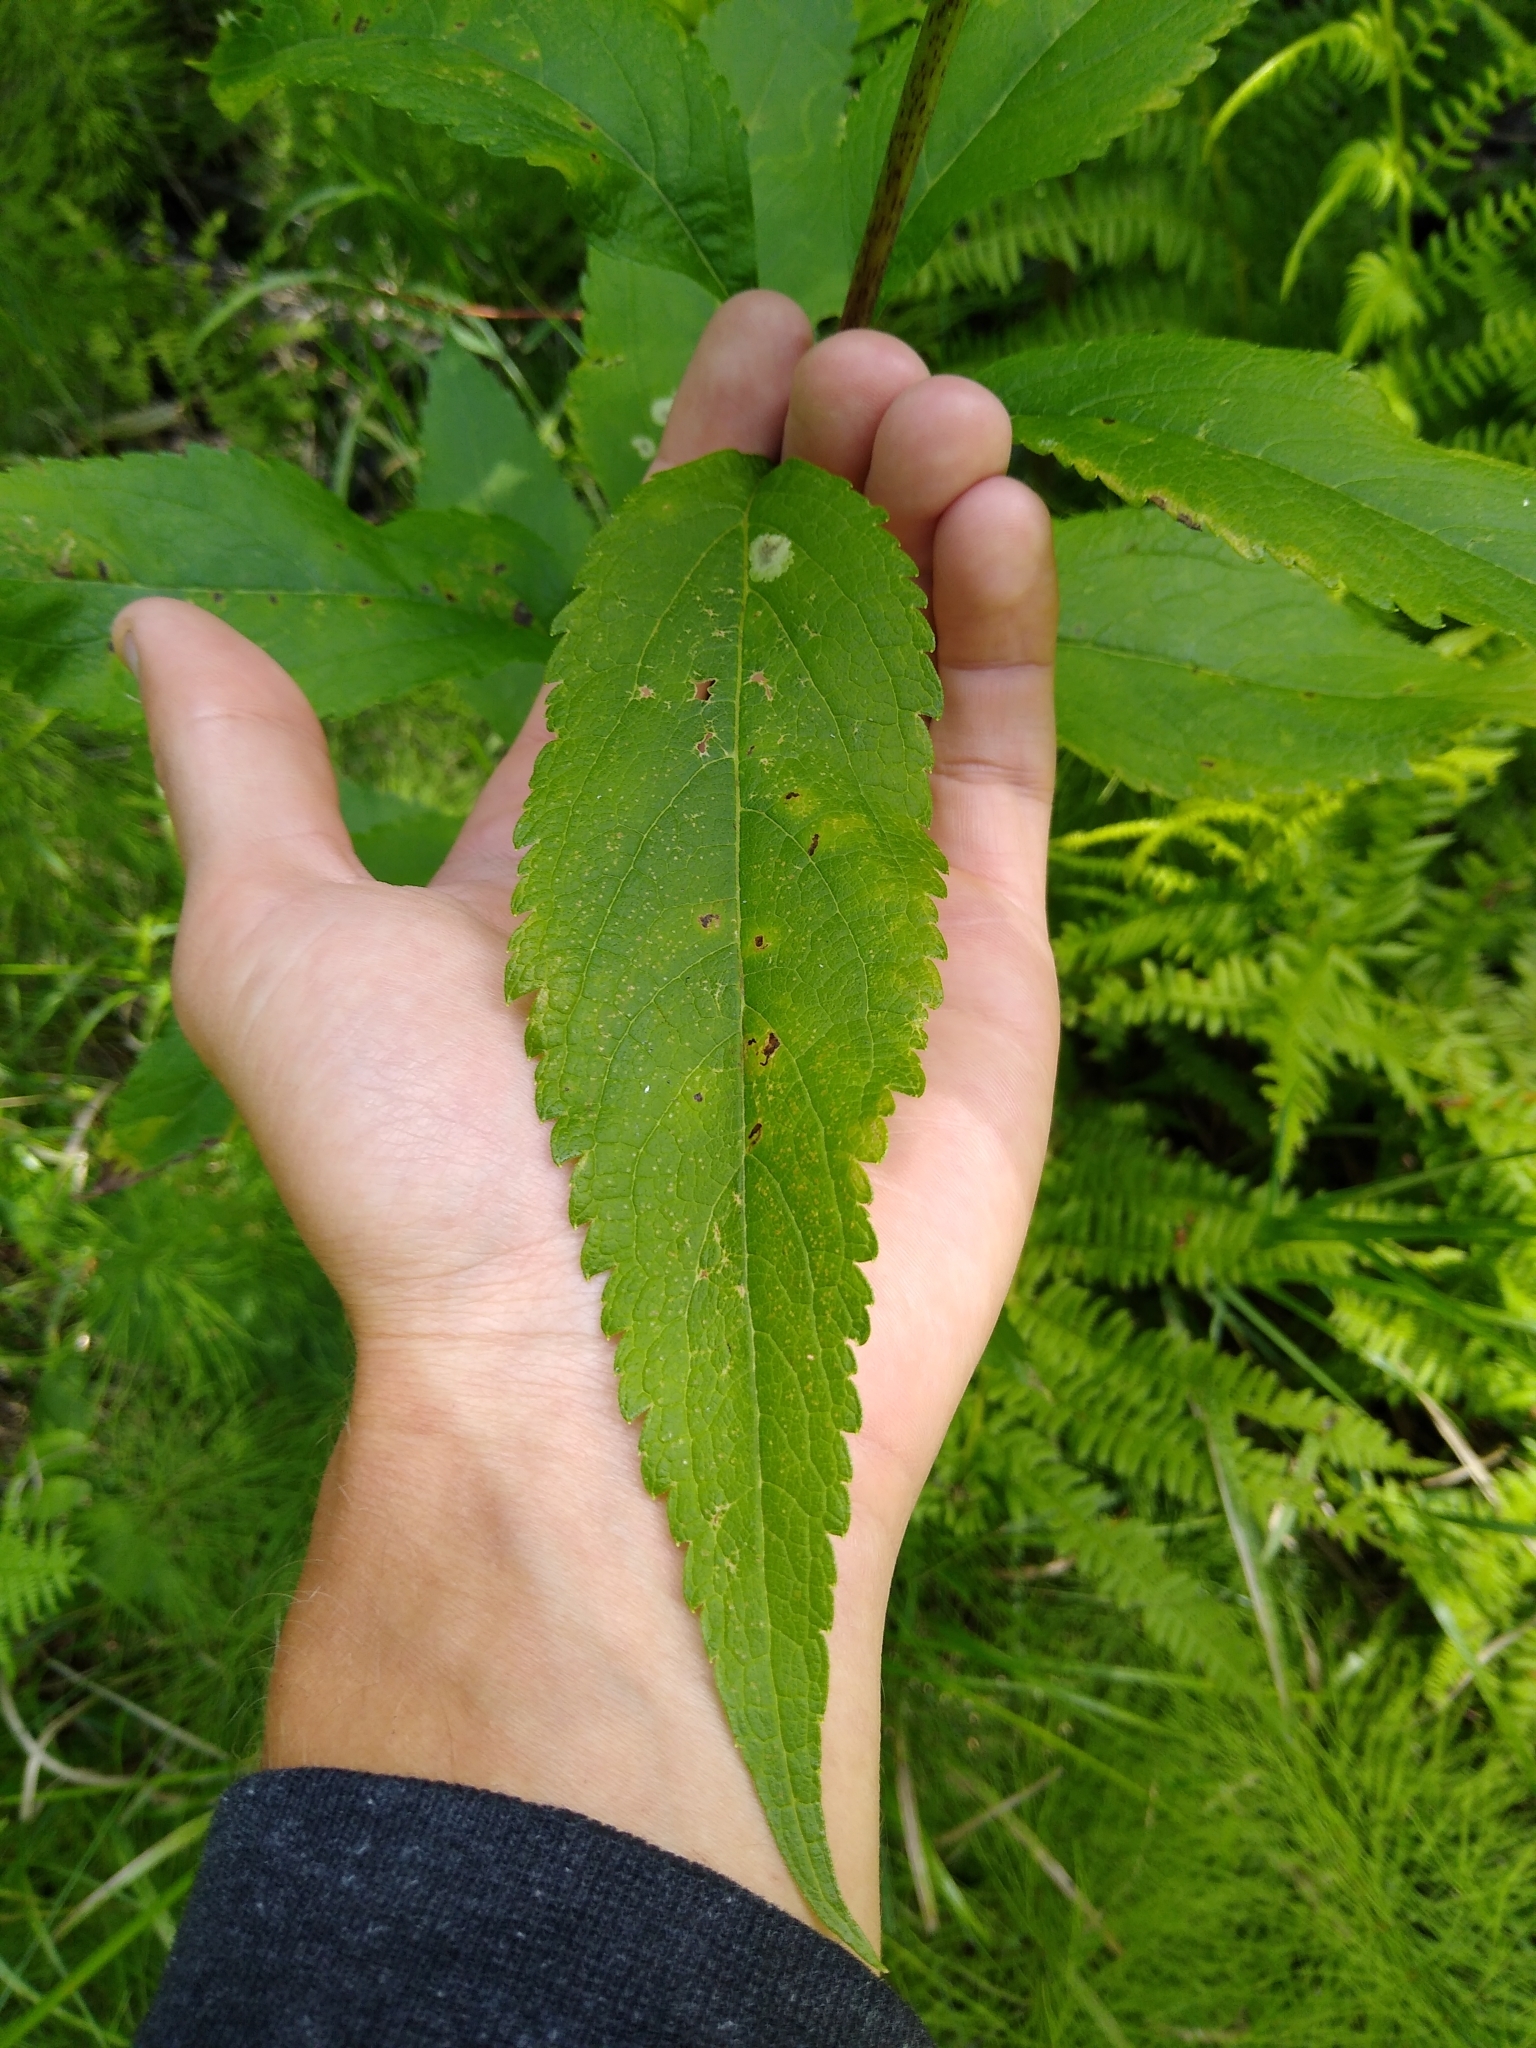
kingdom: Plantae
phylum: Tracheophyta
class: Magnoliopsida
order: Asterales
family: Asteraceae
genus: Eutrochium
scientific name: Eutrochium maculatum
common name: Spotted joe pye weed
